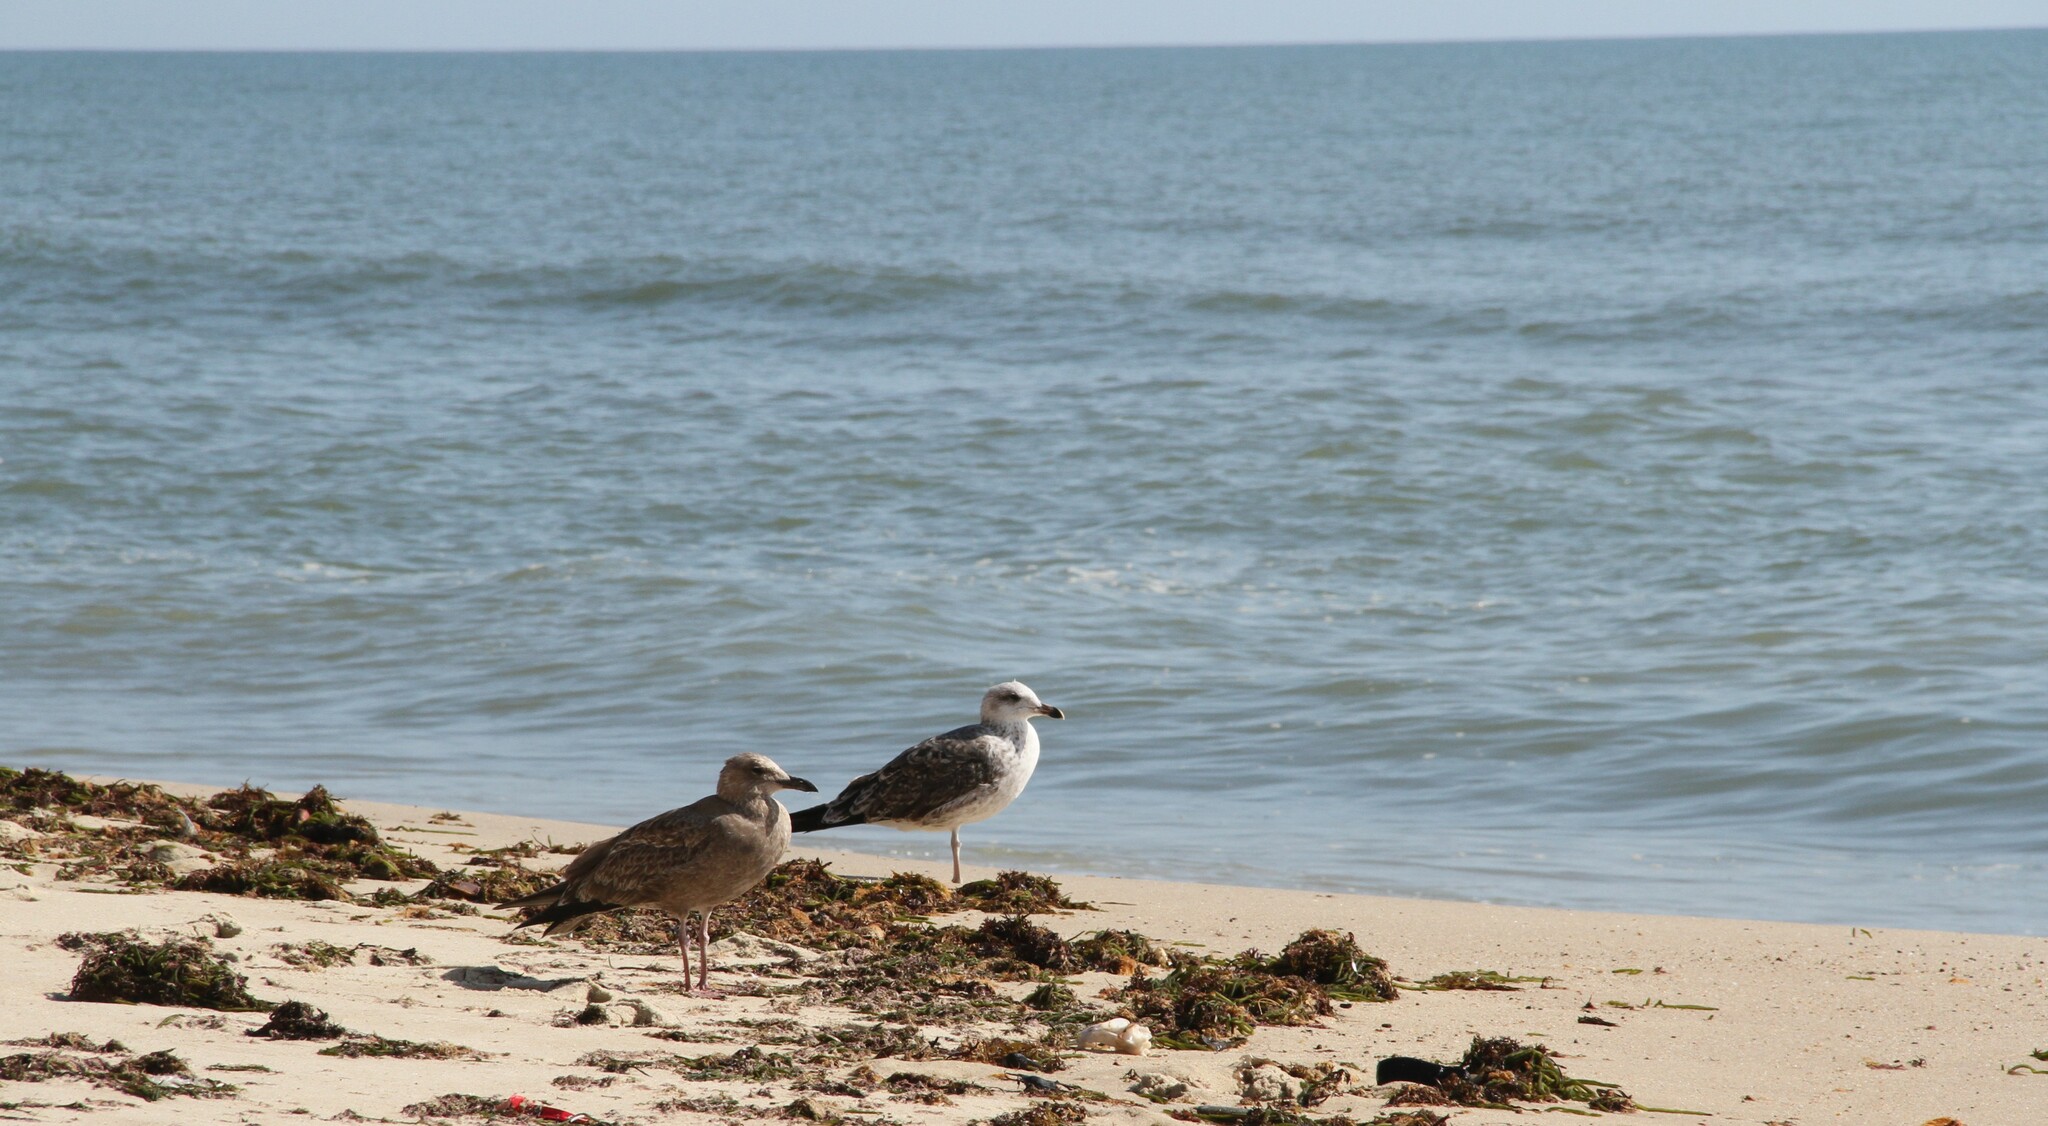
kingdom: Animalia
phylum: Chordata
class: Aves
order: Charadriiformes
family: Laridae
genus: Larus
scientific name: Larus fuscus
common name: Lesser black-backed gull
